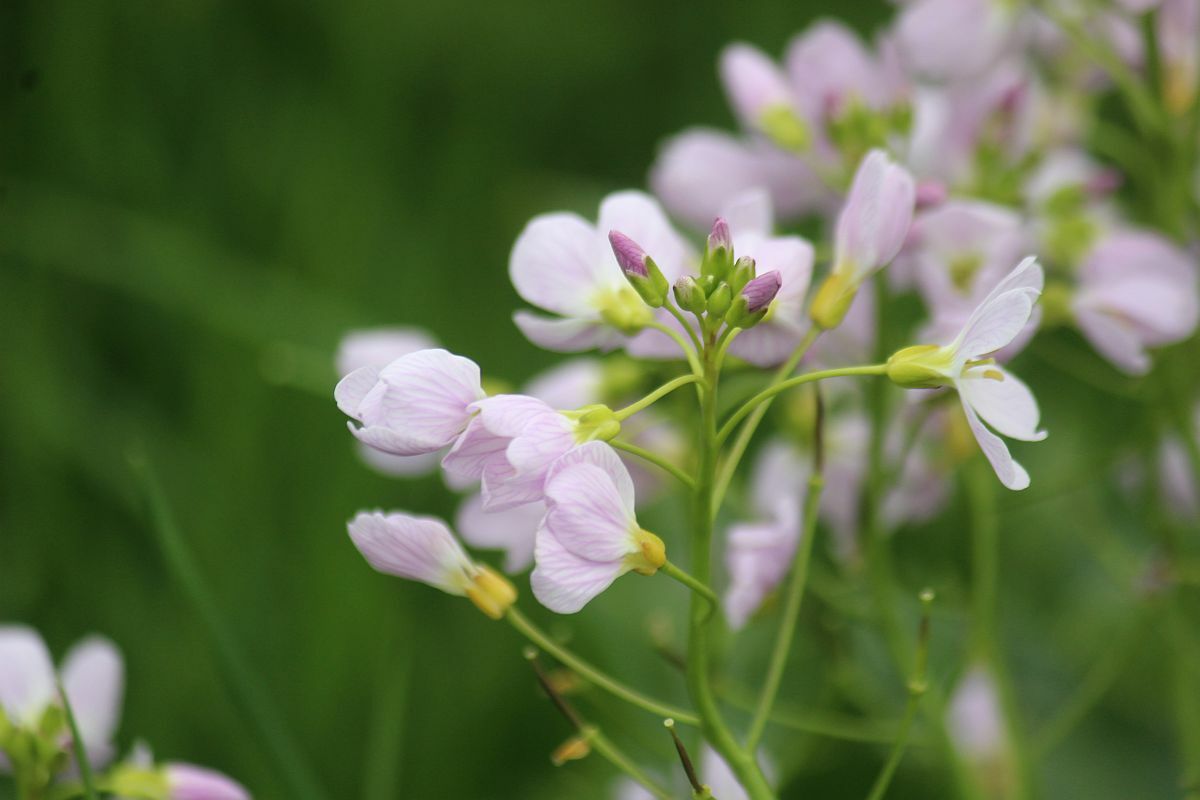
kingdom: Plantae
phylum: Tracheophyta
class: Magnoliopsida
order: Brassicales
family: Brassicaceae
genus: Cardamine
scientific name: Cardamine pratensis
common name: Cuckoo flower
